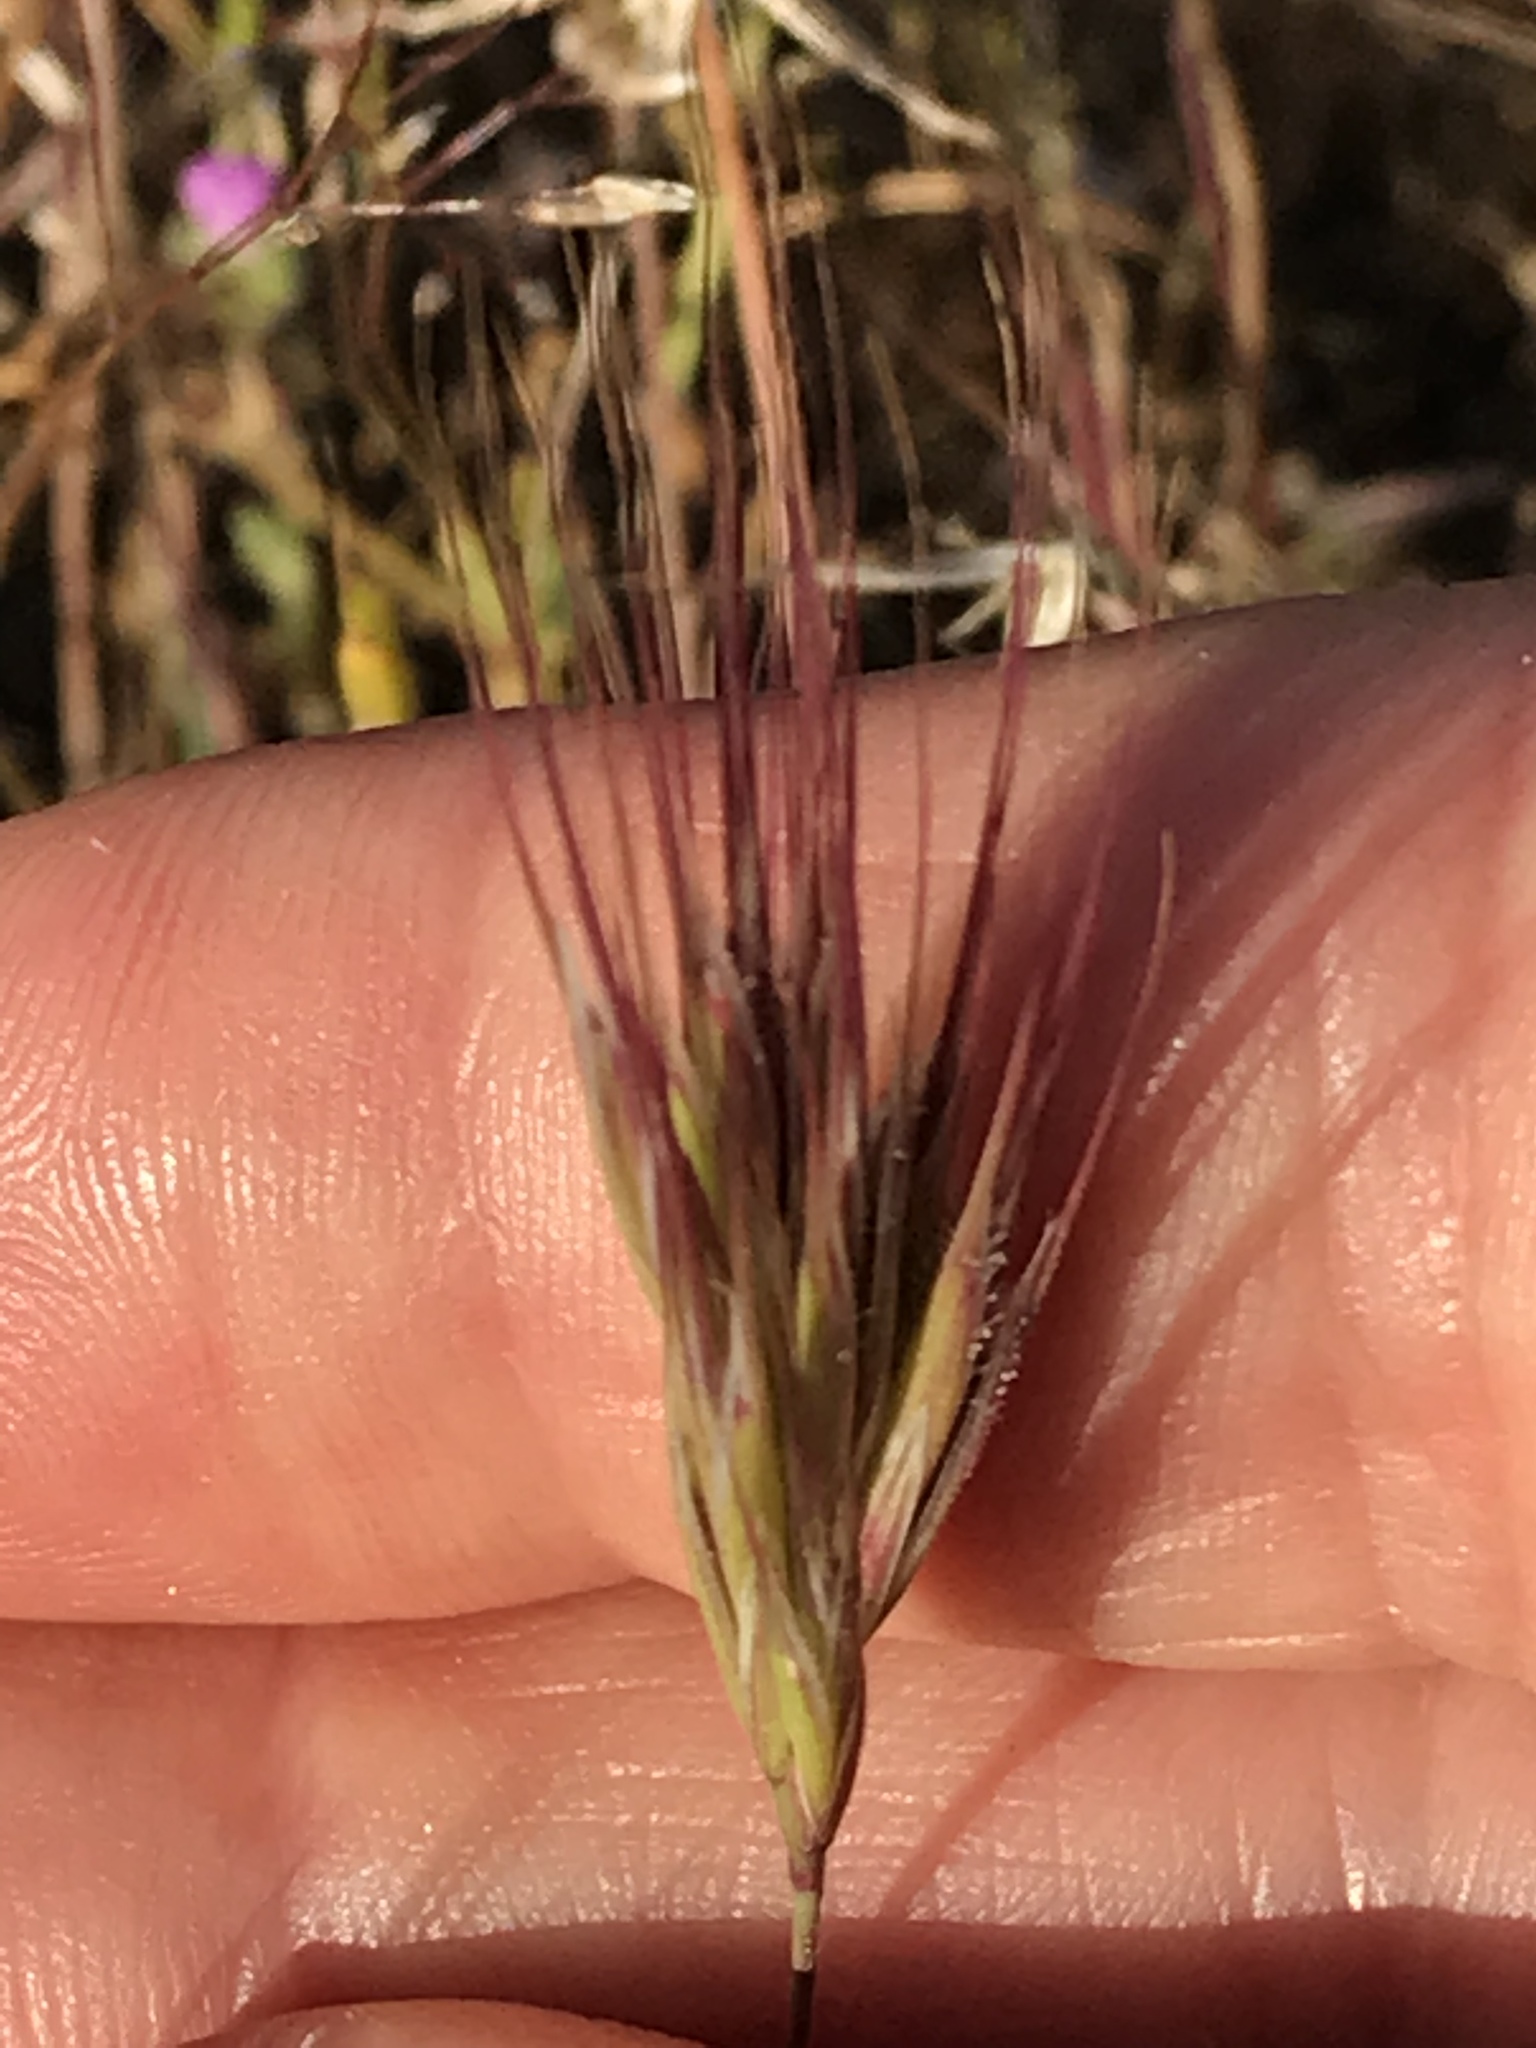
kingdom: Plantae
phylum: Tracheophyta
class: Liliopsida
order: Poales
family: Poaceae
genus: Bromus
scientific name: Bromus rubens
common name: Red brome
